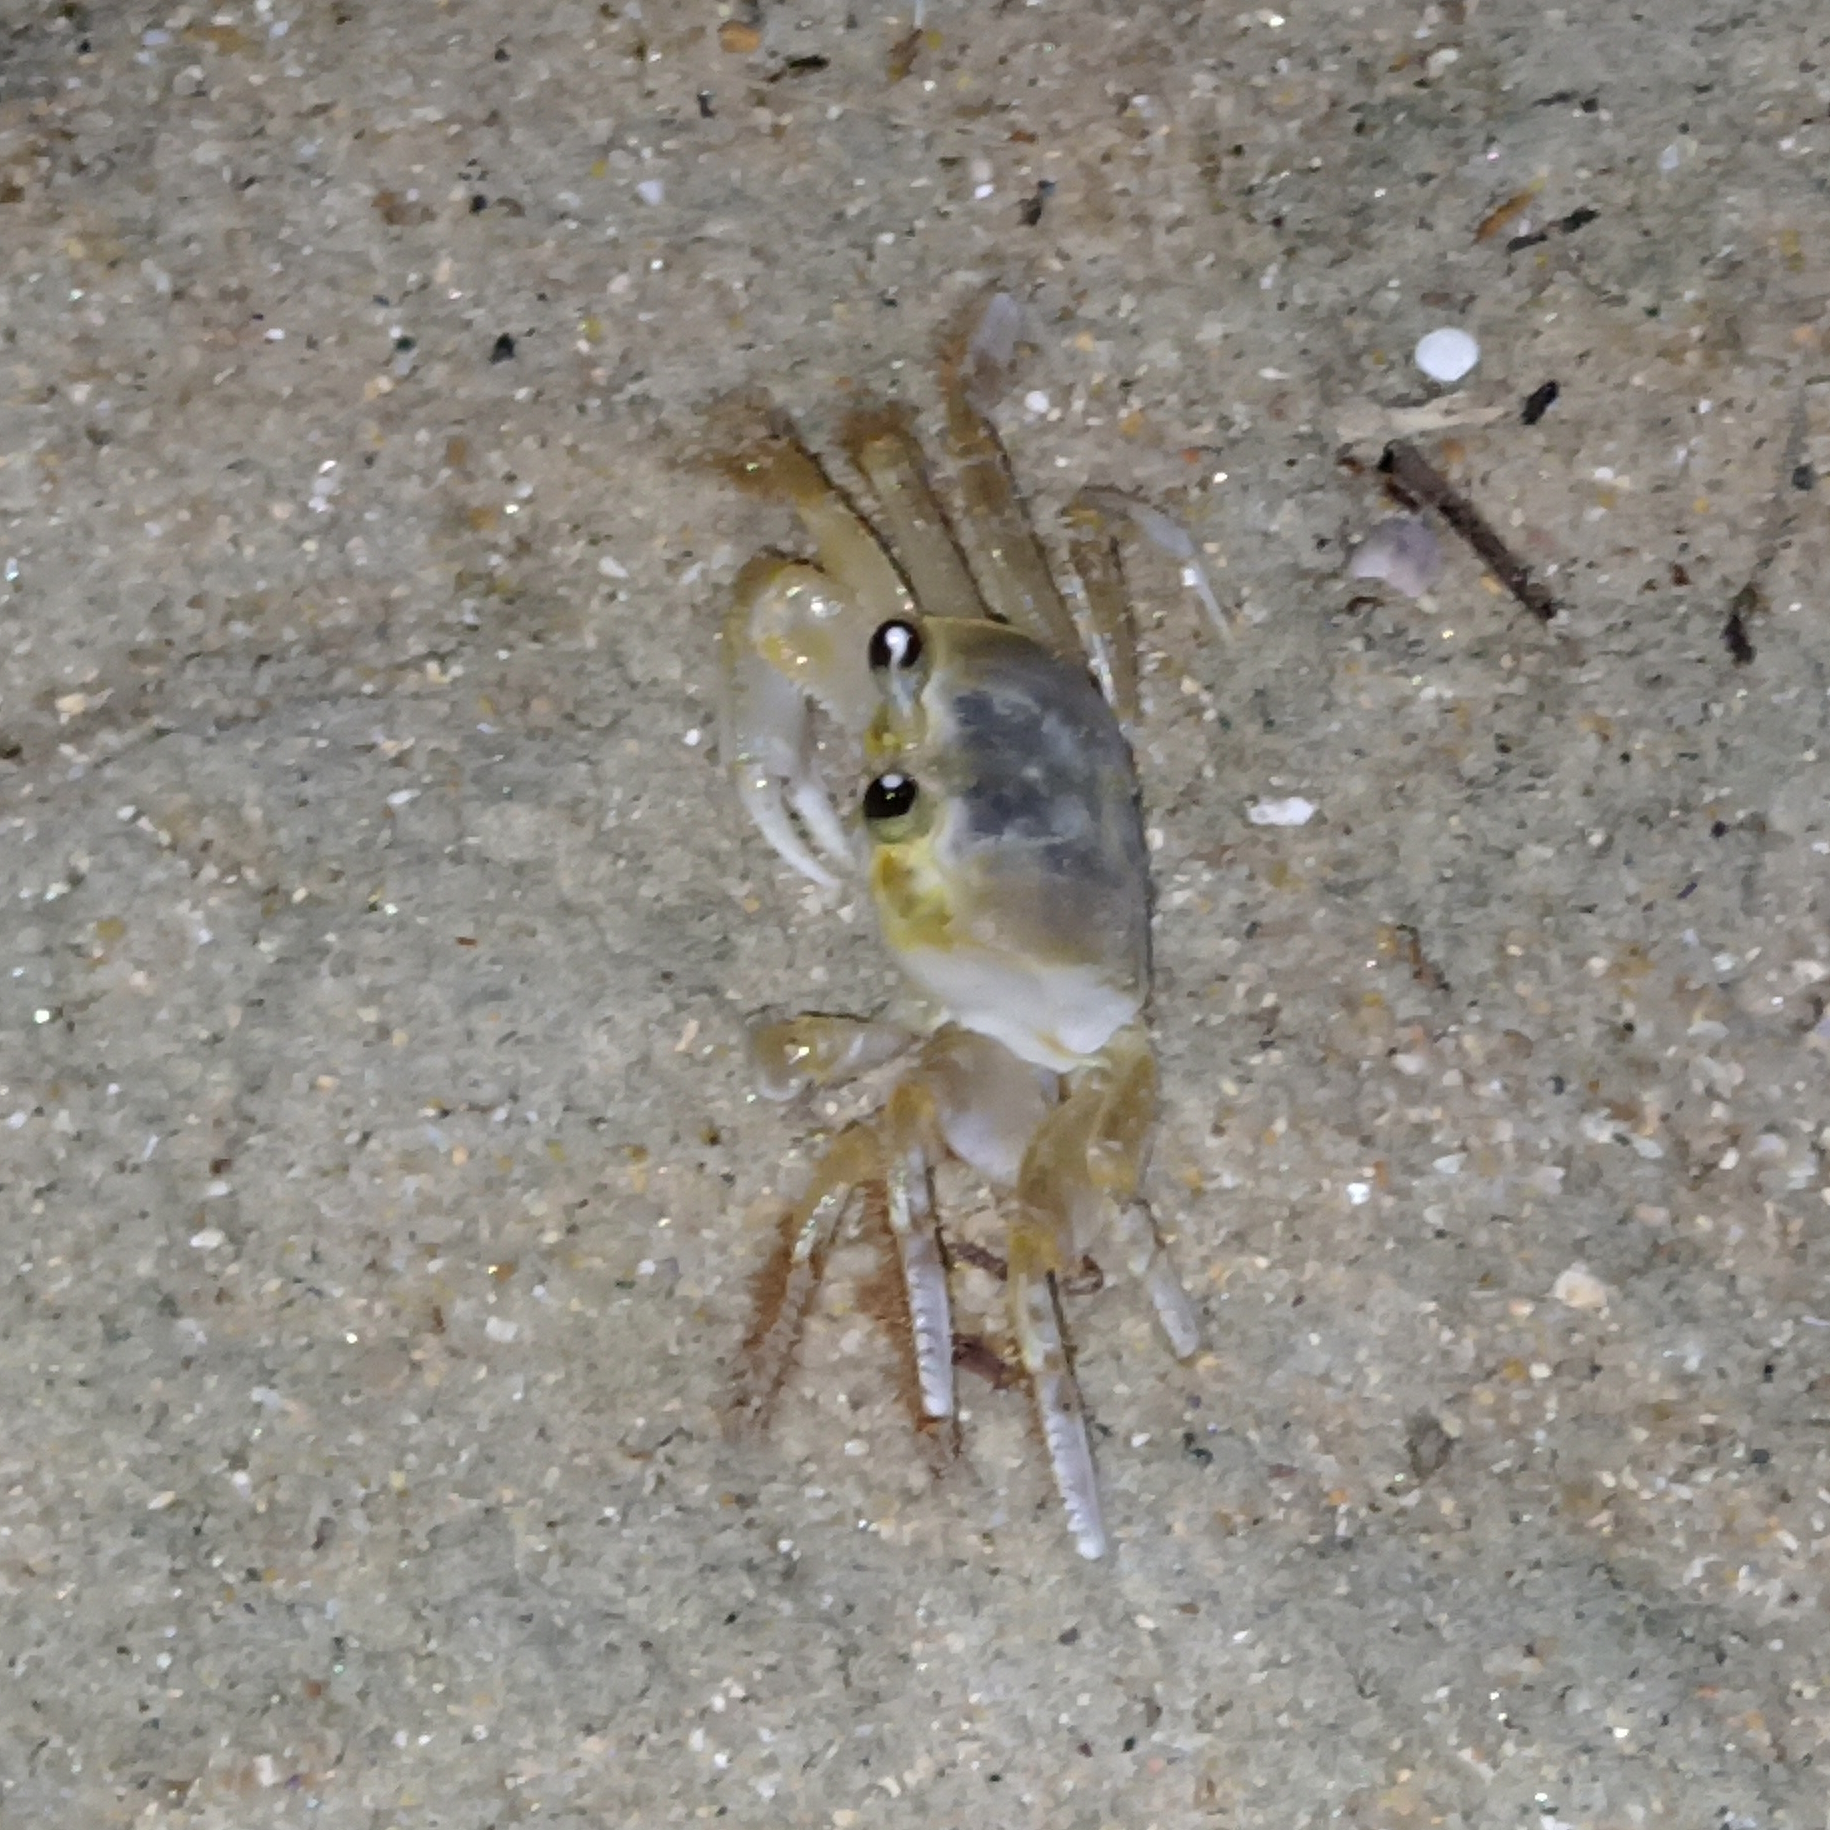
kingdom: Animalia
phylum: Arthropoda
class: Malacostraca
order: Decapoda
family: Ocypodidae
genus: Ocypode
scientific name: Ocypode quadrata
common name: Ghost crab
